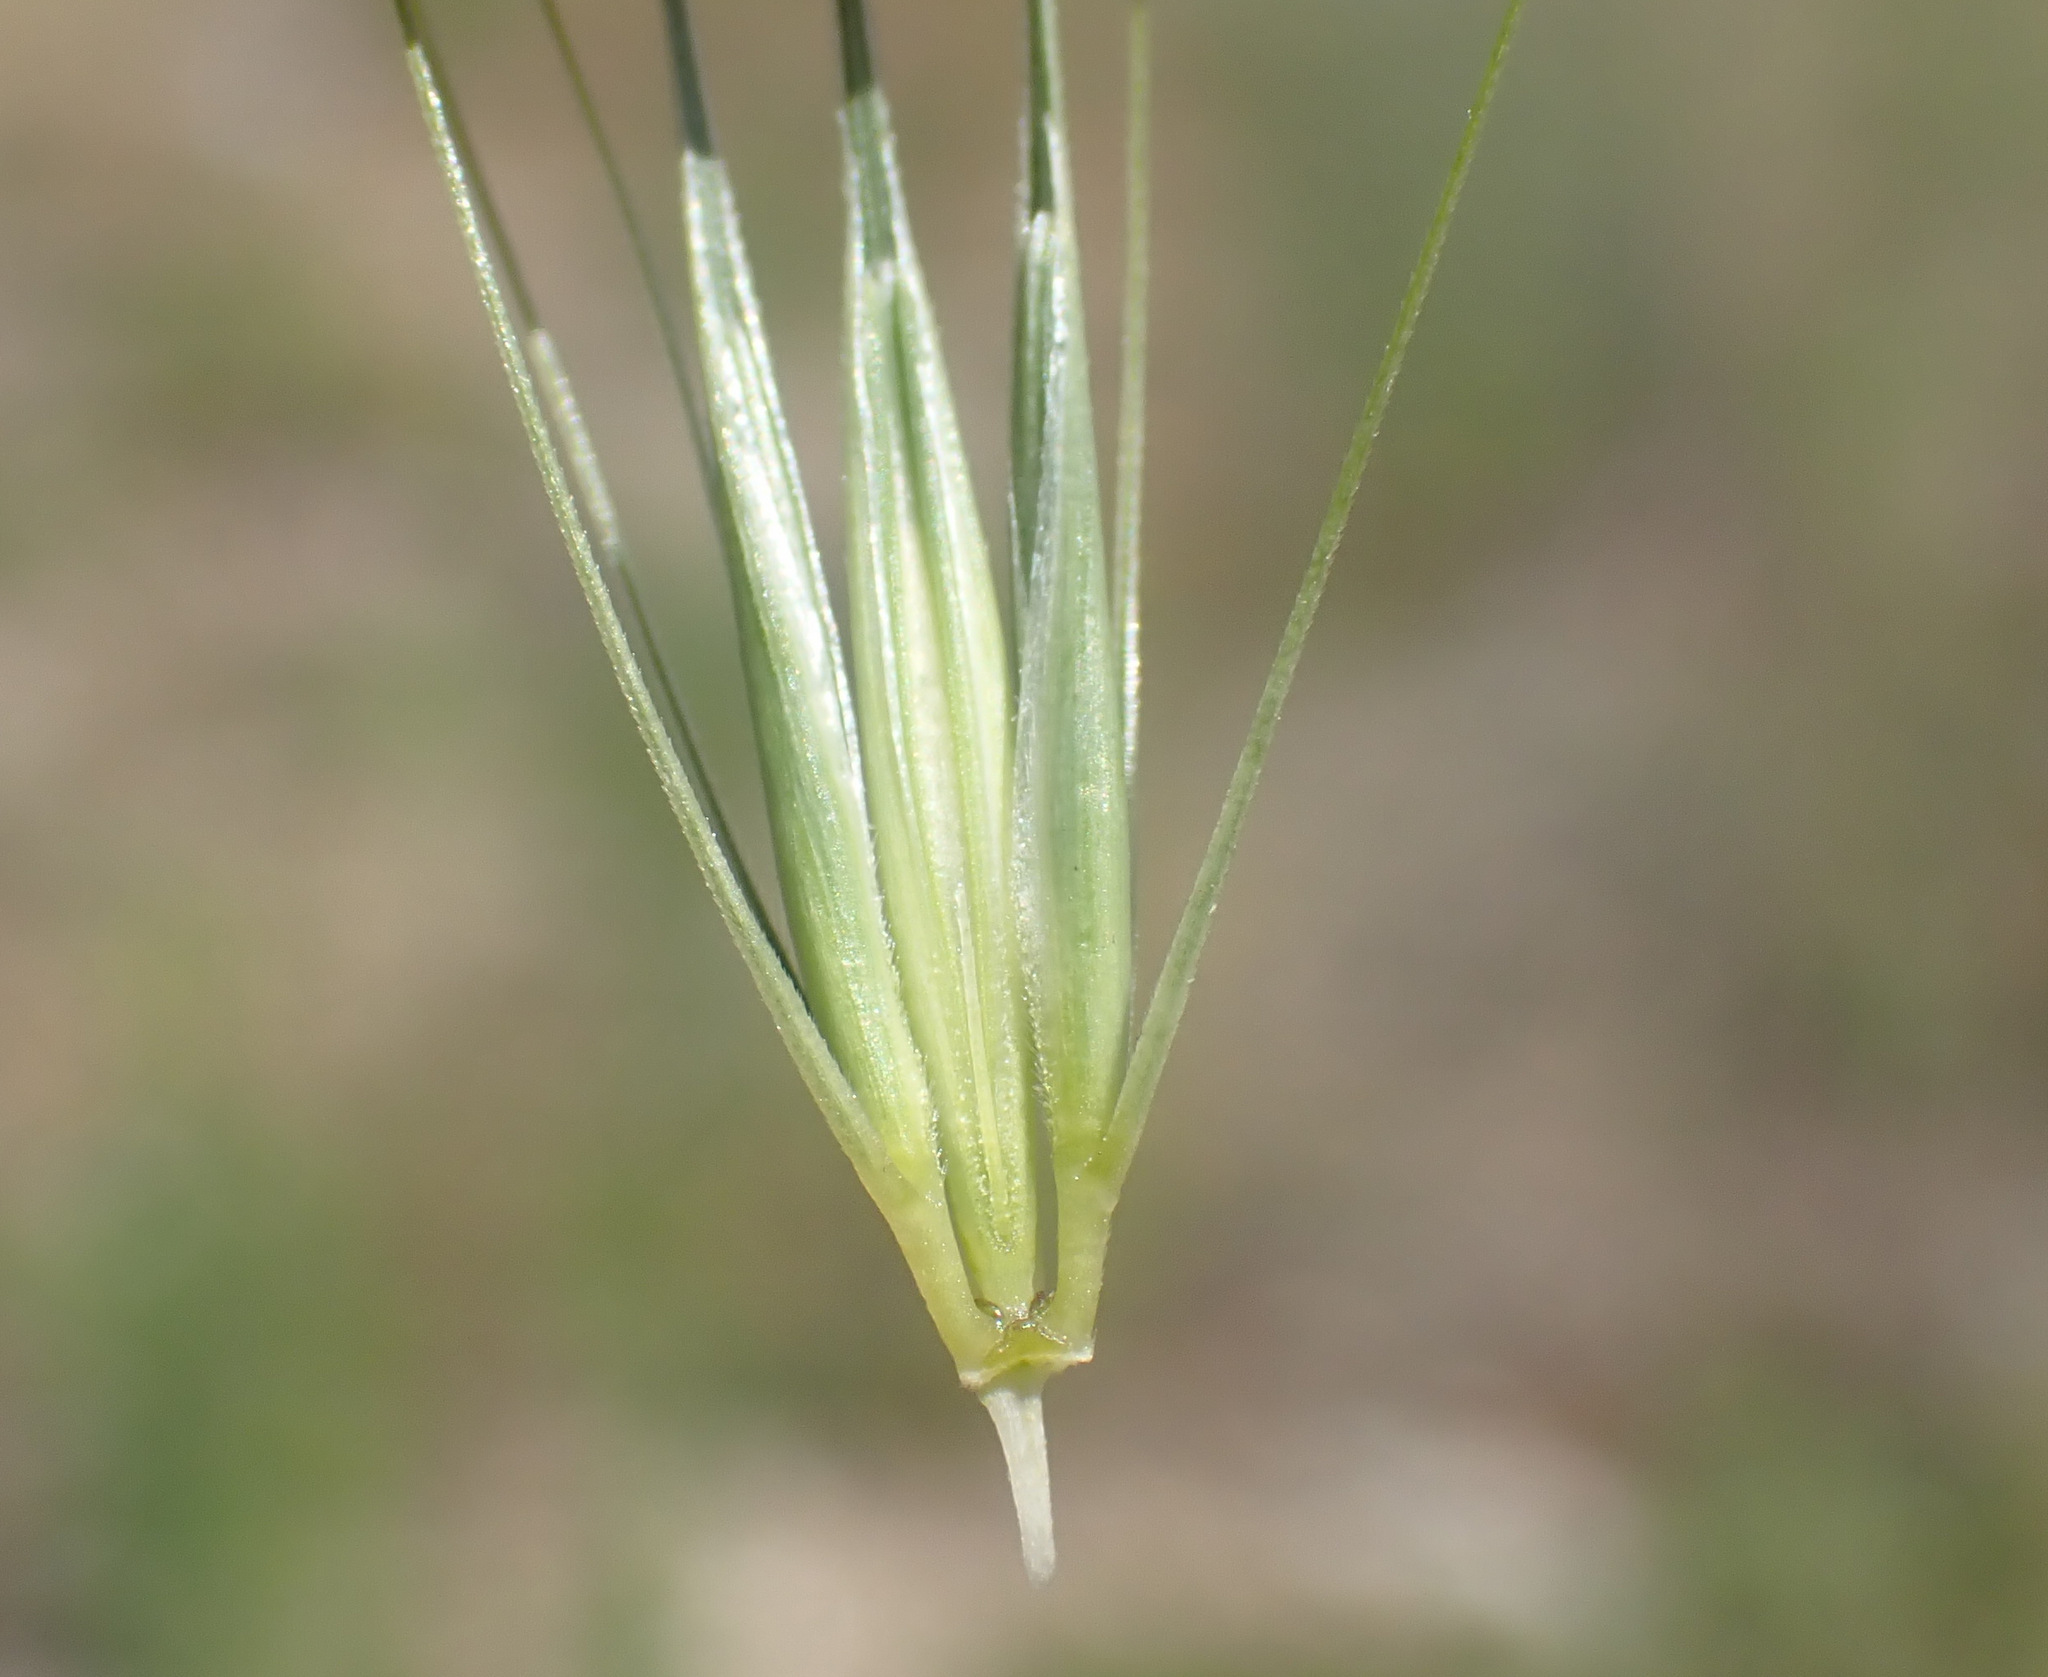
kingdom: Plantae
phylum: Tracheophyta
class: Liliopsida
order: Poales
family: Poaceae
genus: Hordeum
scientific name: Hordeum murinum
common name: Wall barley
